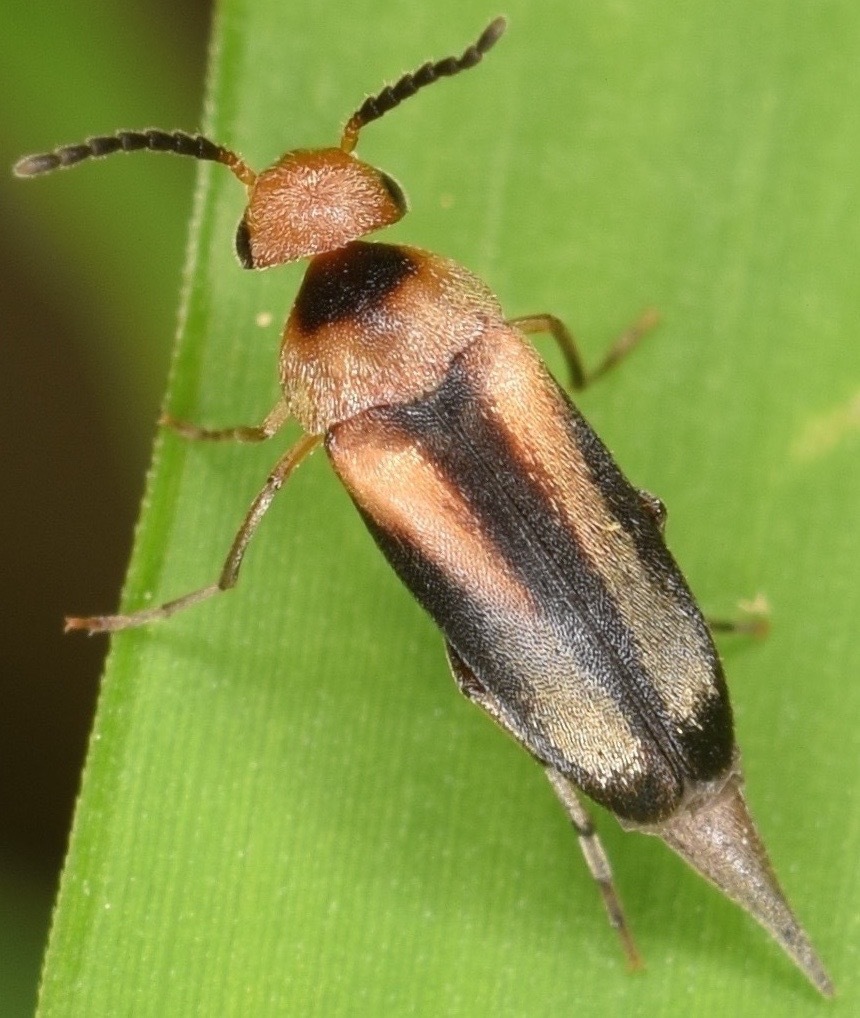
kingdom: Animalia
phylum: Arthropoda
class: Insecta
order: Coleoptera
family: Mordellidae
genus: Mordellistena
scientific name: Mordellistena attenuata
